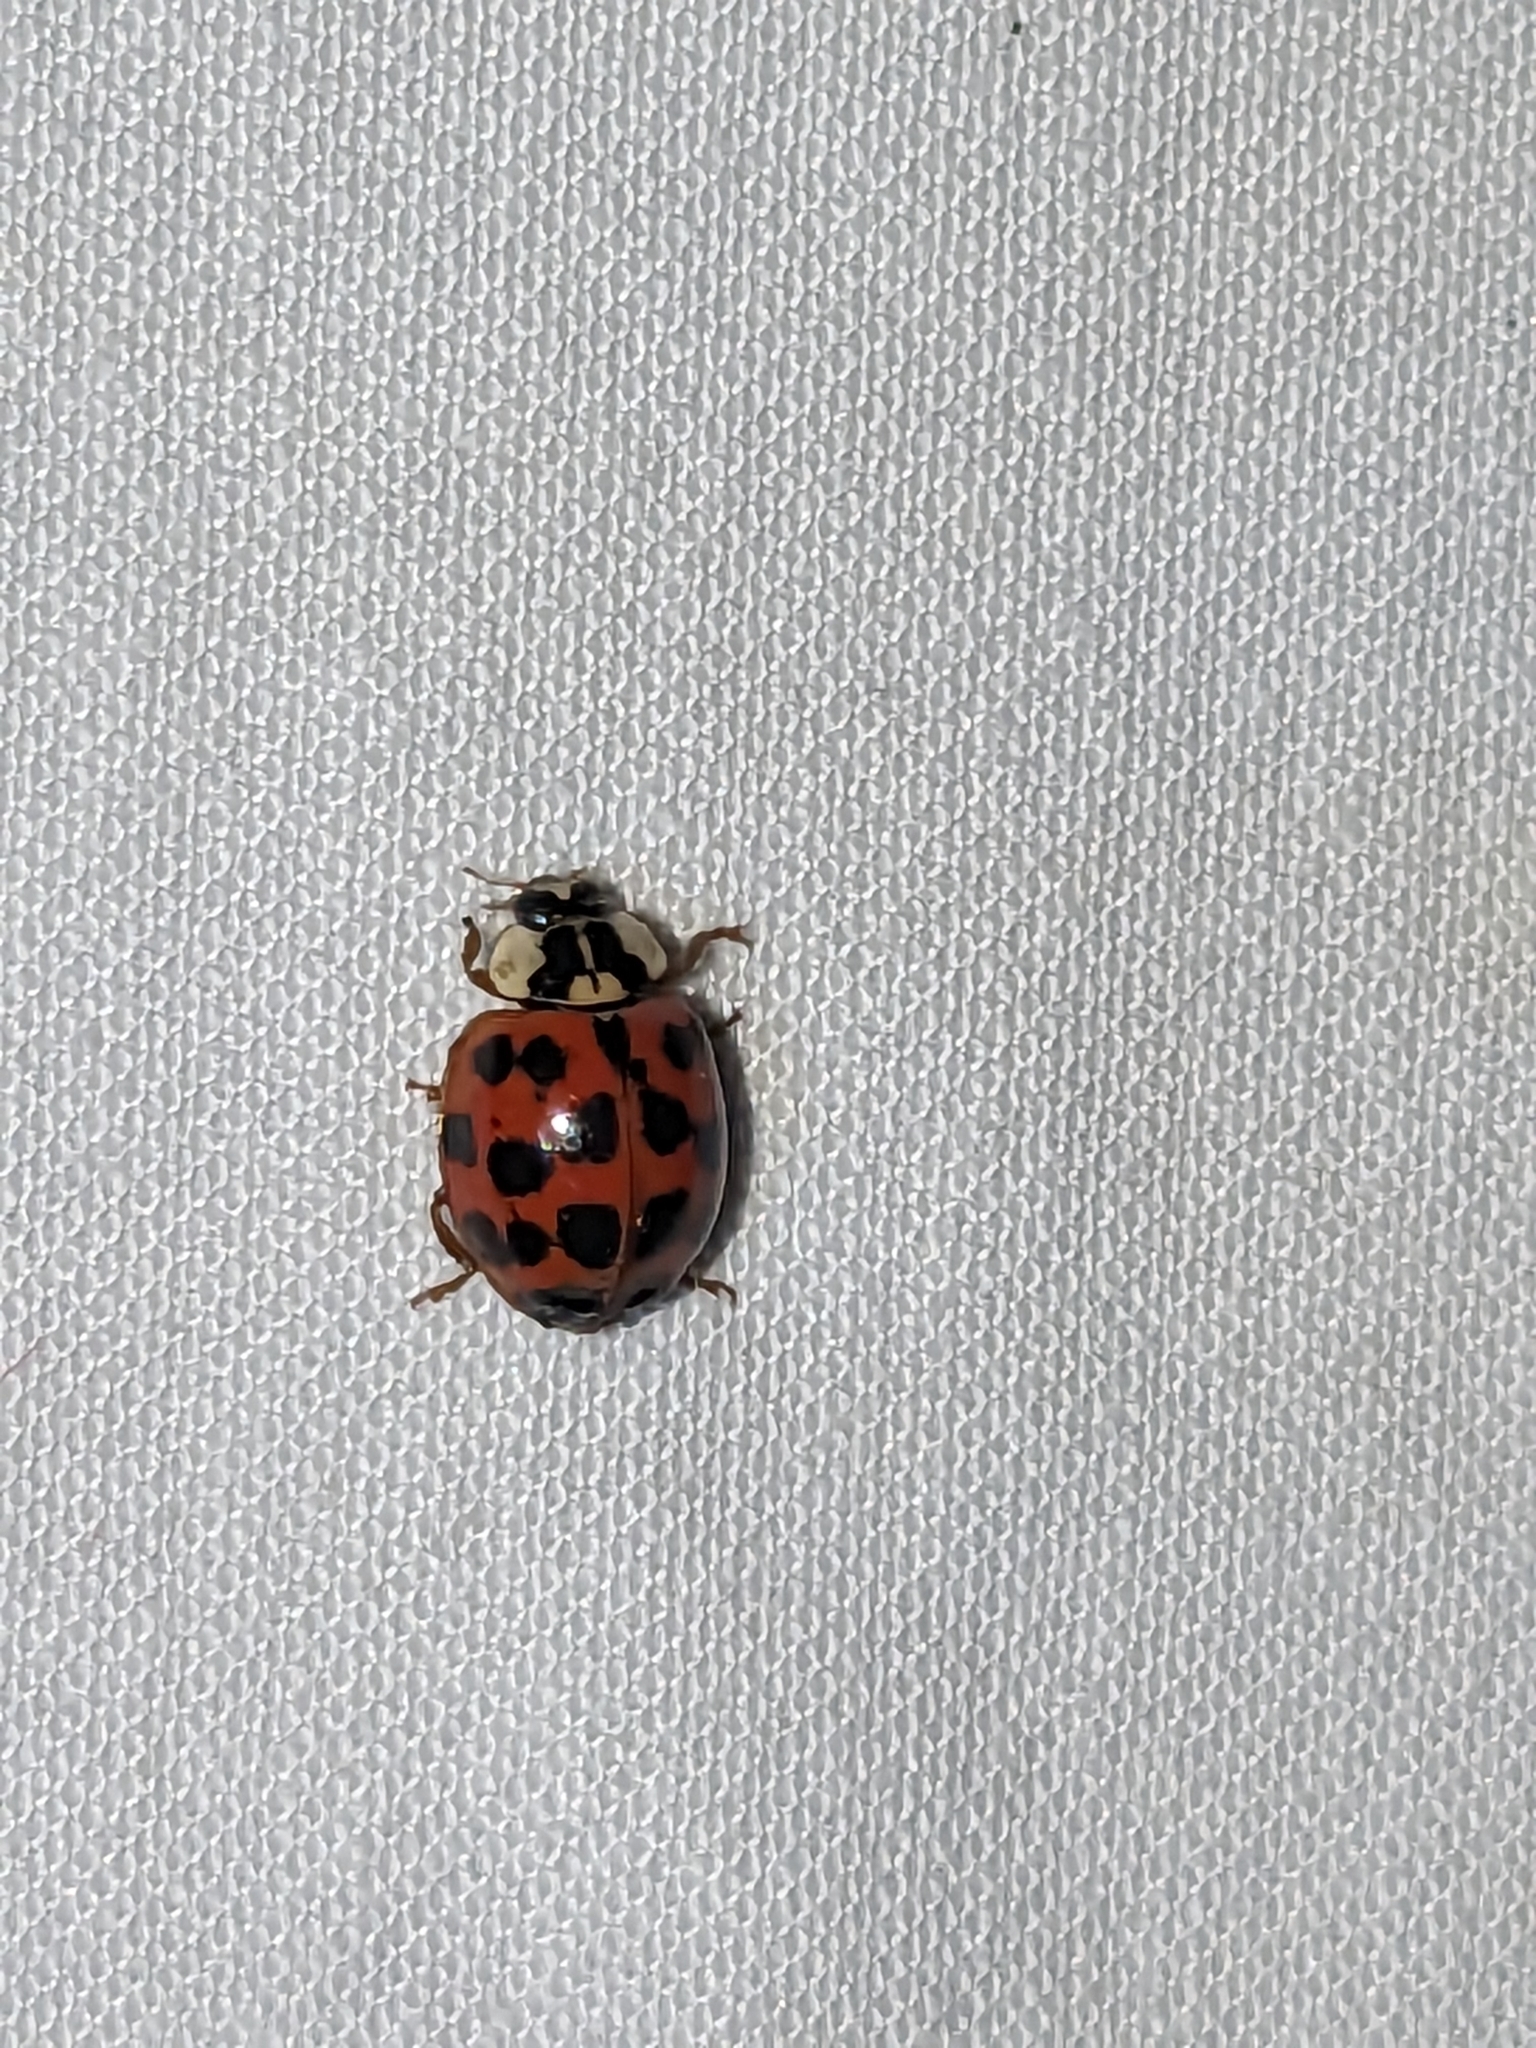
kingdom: Animalia
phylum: Arthropoda
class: Insecta
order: Coleoptera
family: Coccinellidae
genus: Harmonia
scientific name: Harmonia axyridis
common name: Harlequin ladybird
